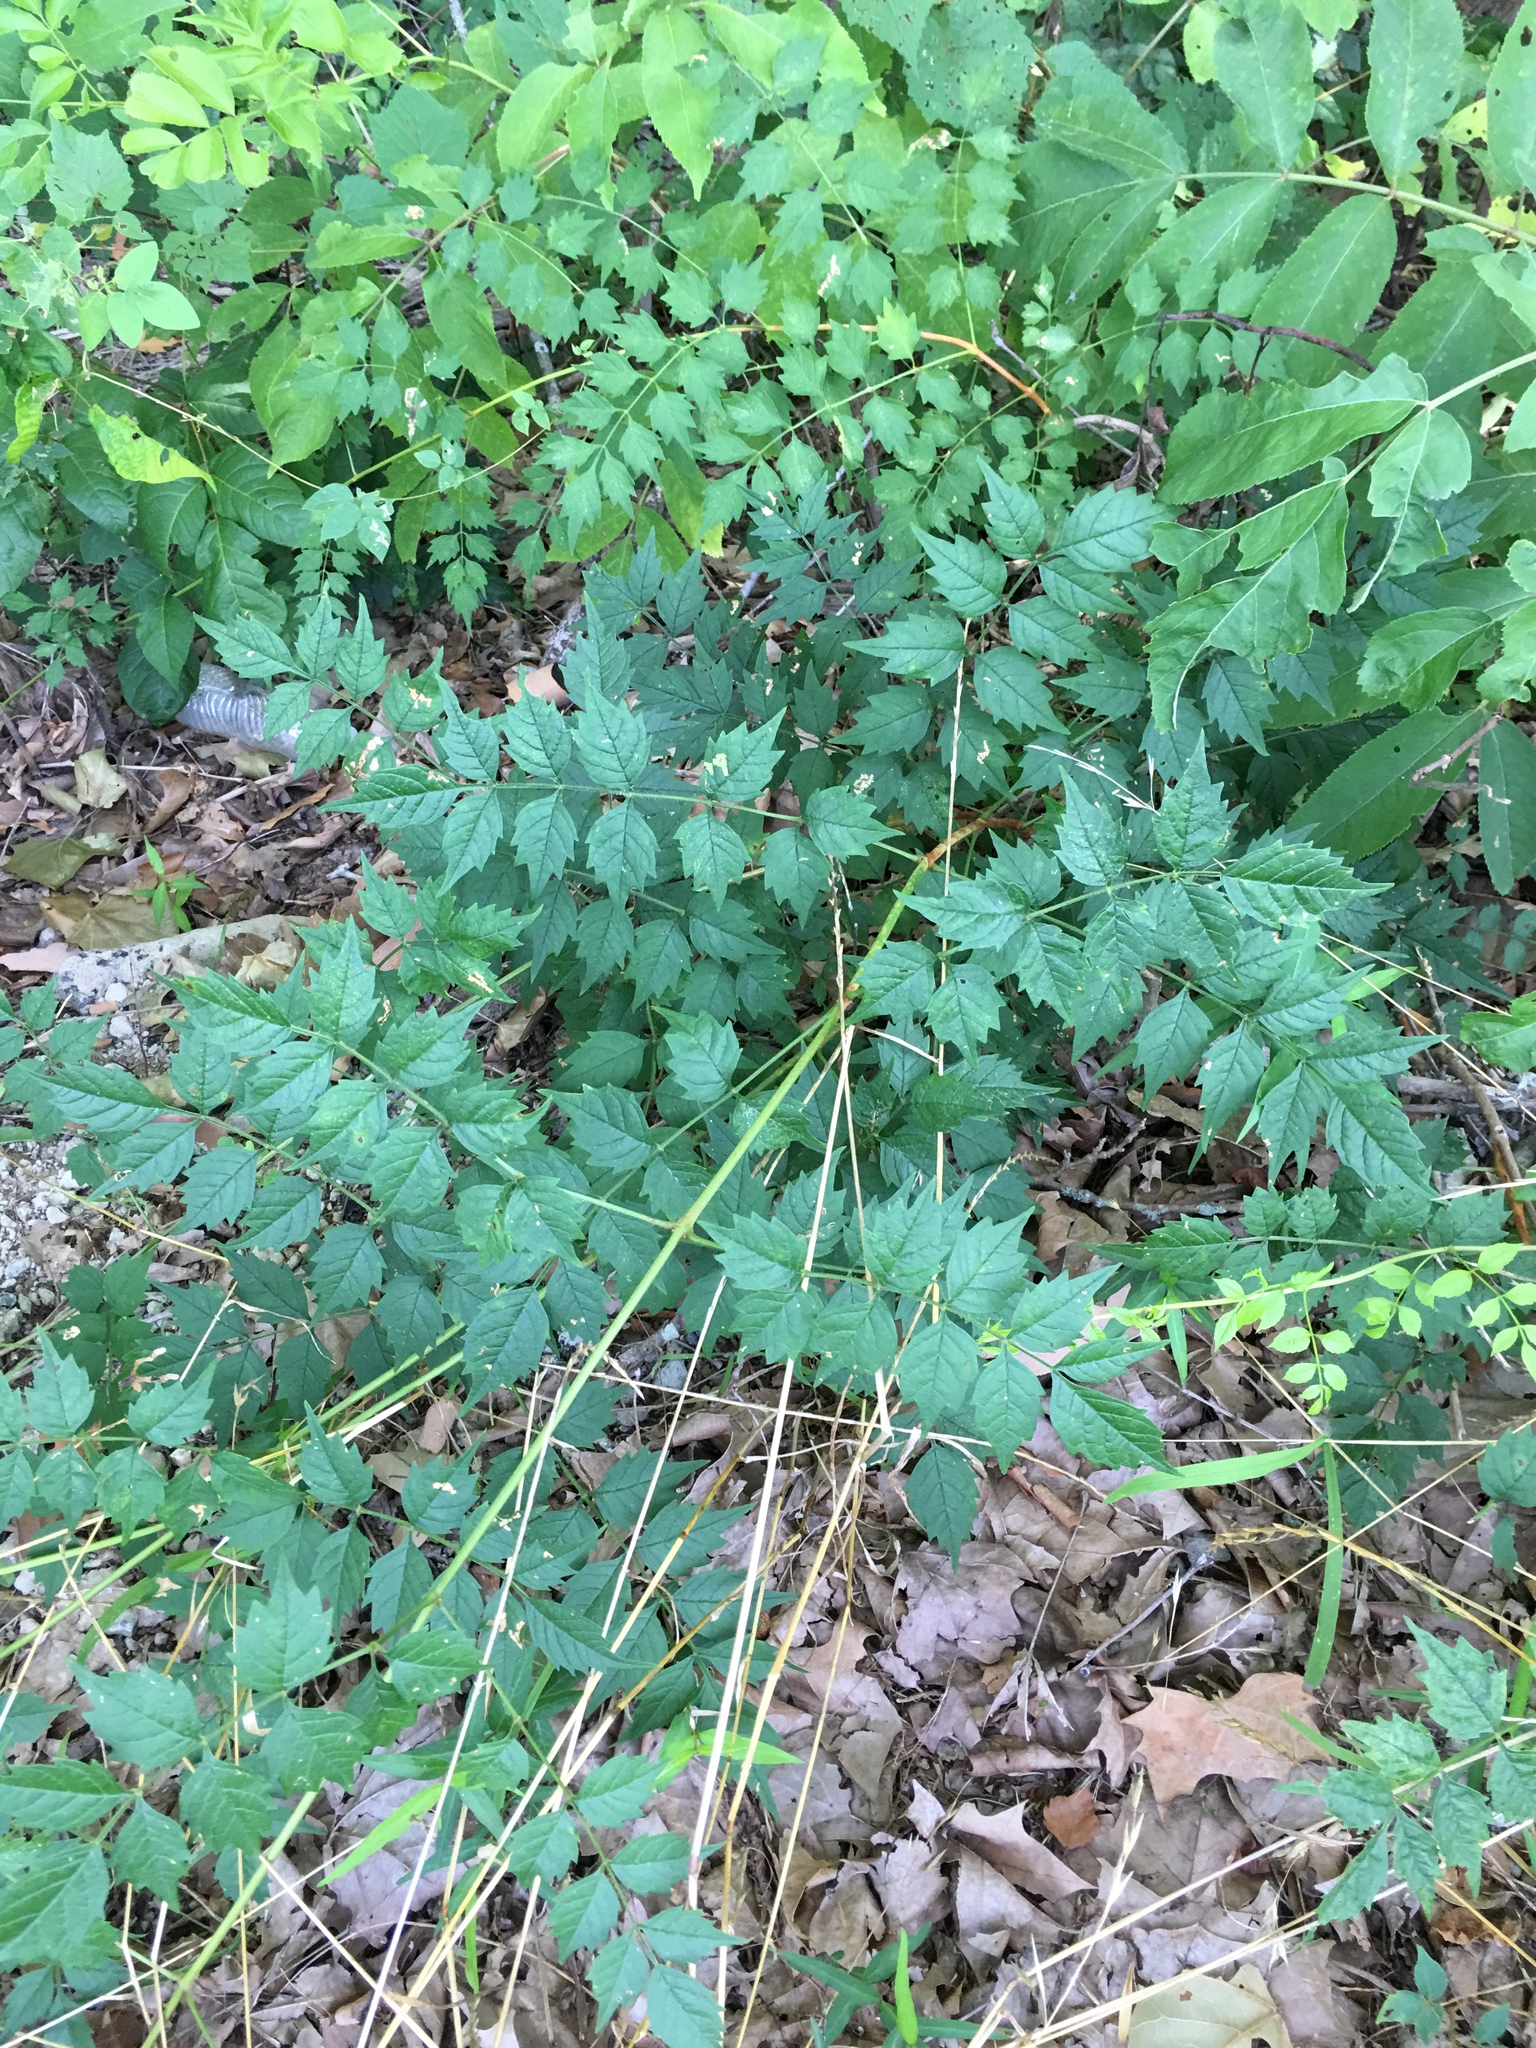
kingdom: Plantae
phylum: Tracheophyta
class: Magnoliopsida
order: Lamiales
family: Bignoniaceae
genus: Campsis
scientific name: Campsis radicans
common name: Trumpet-creeper
